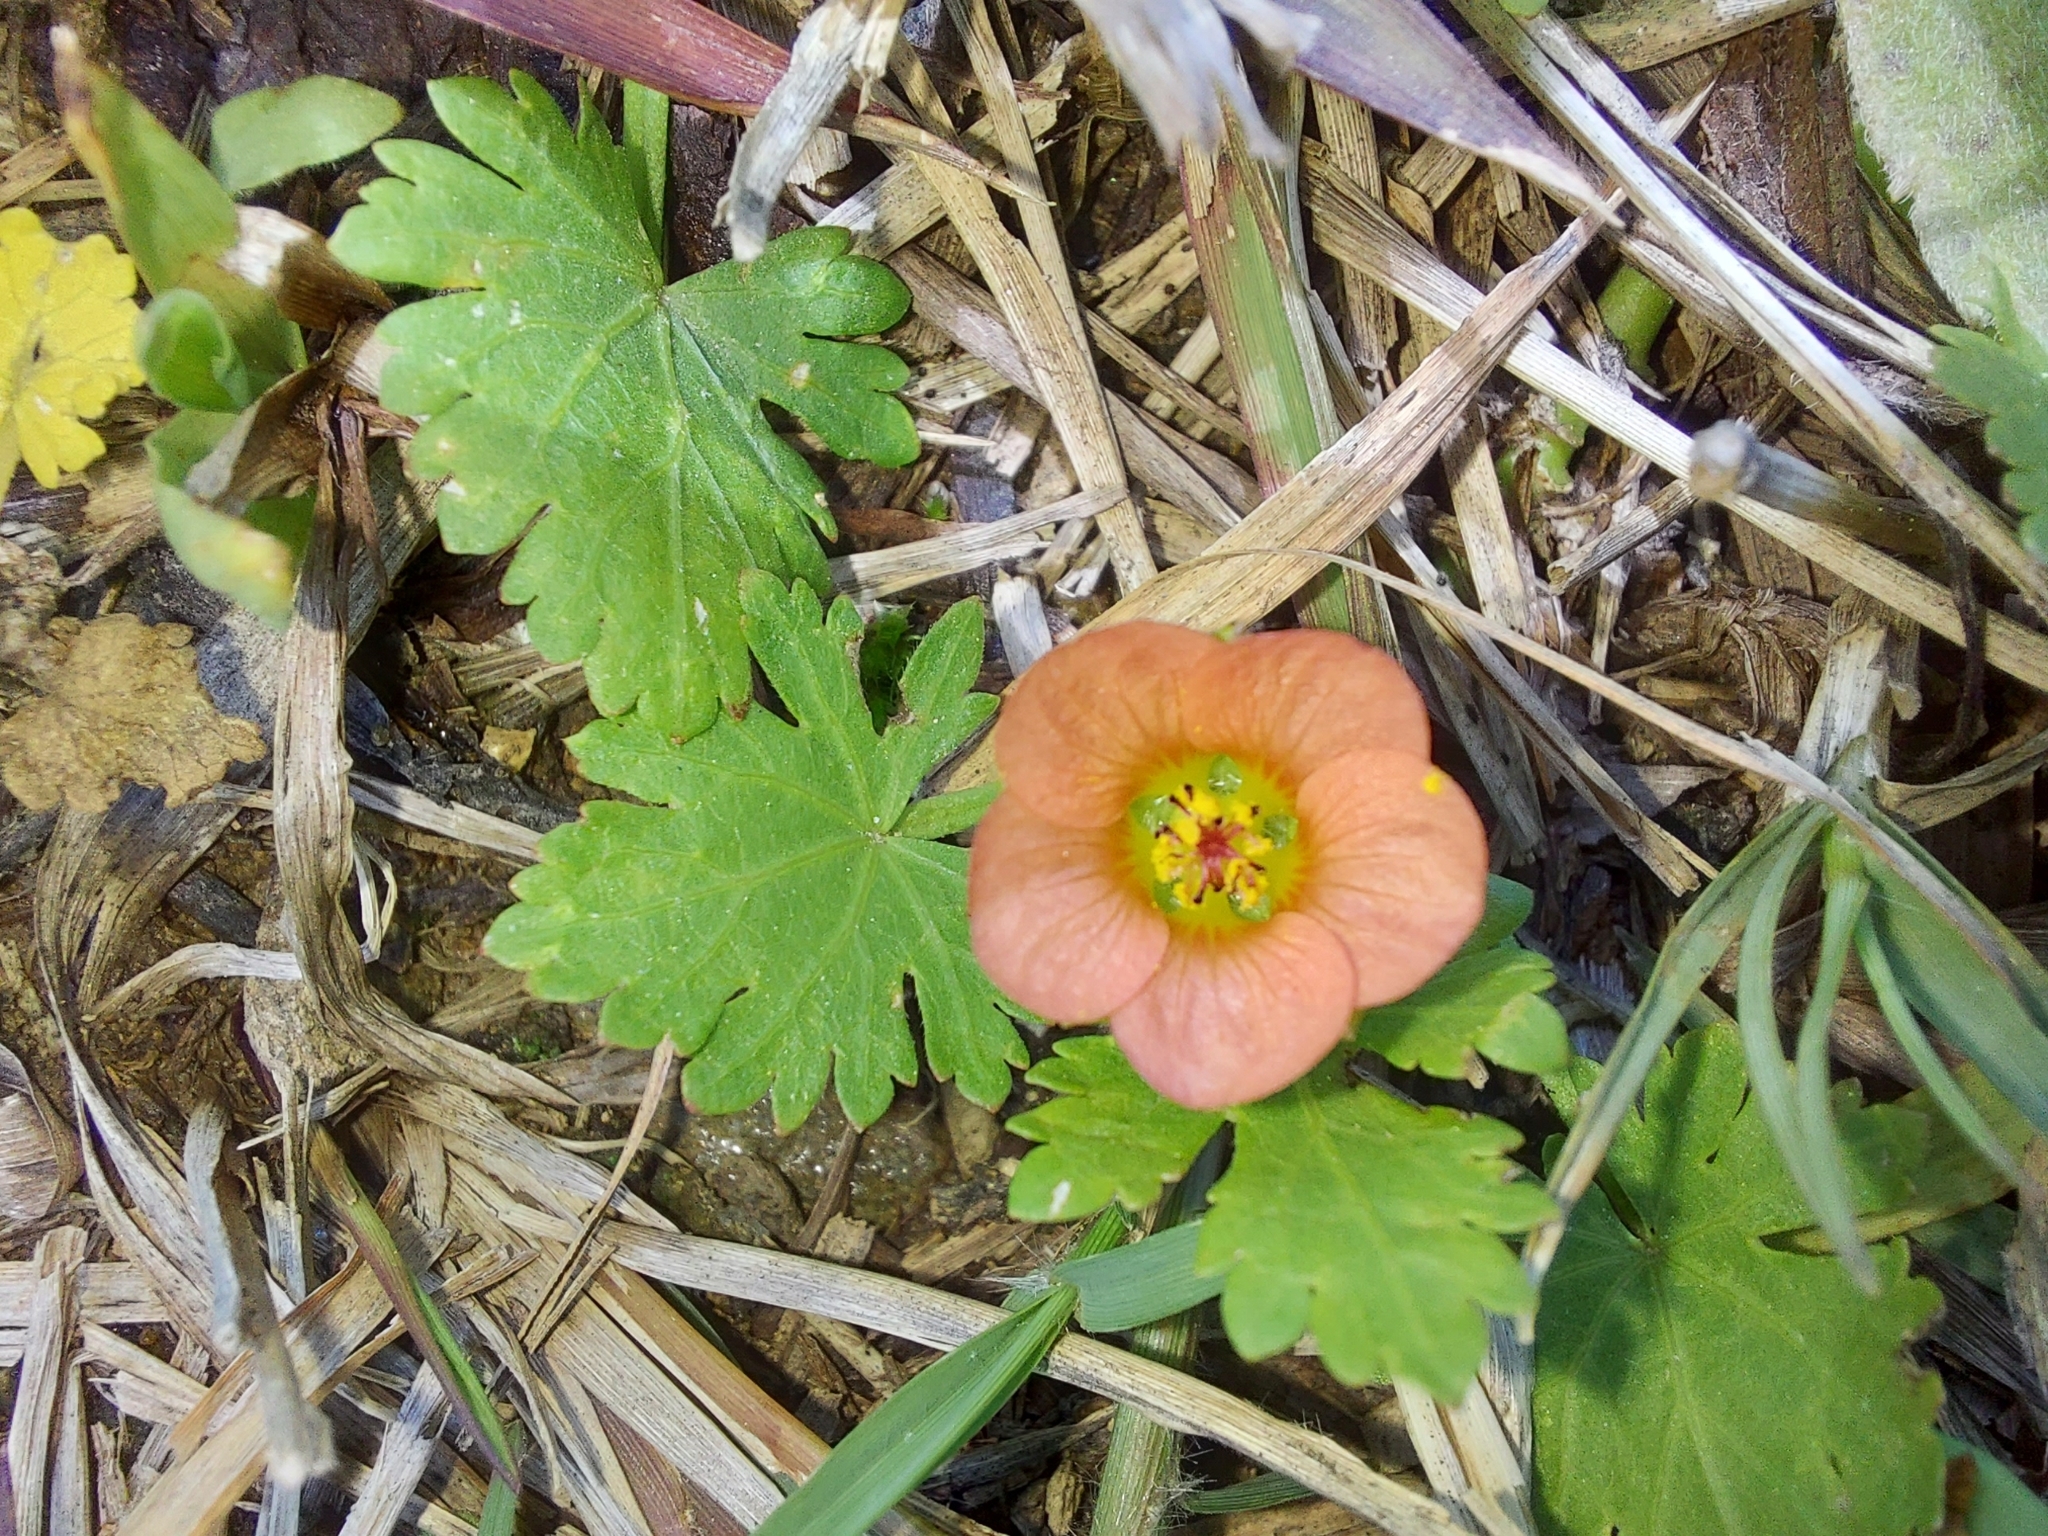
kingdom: Plantae
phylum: Tracheophyta
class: Magnoliopsida
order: Malvales
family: Malvaceae
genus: Modiola
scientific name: Modiola caroliniana
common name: Carolina bristlemallow
